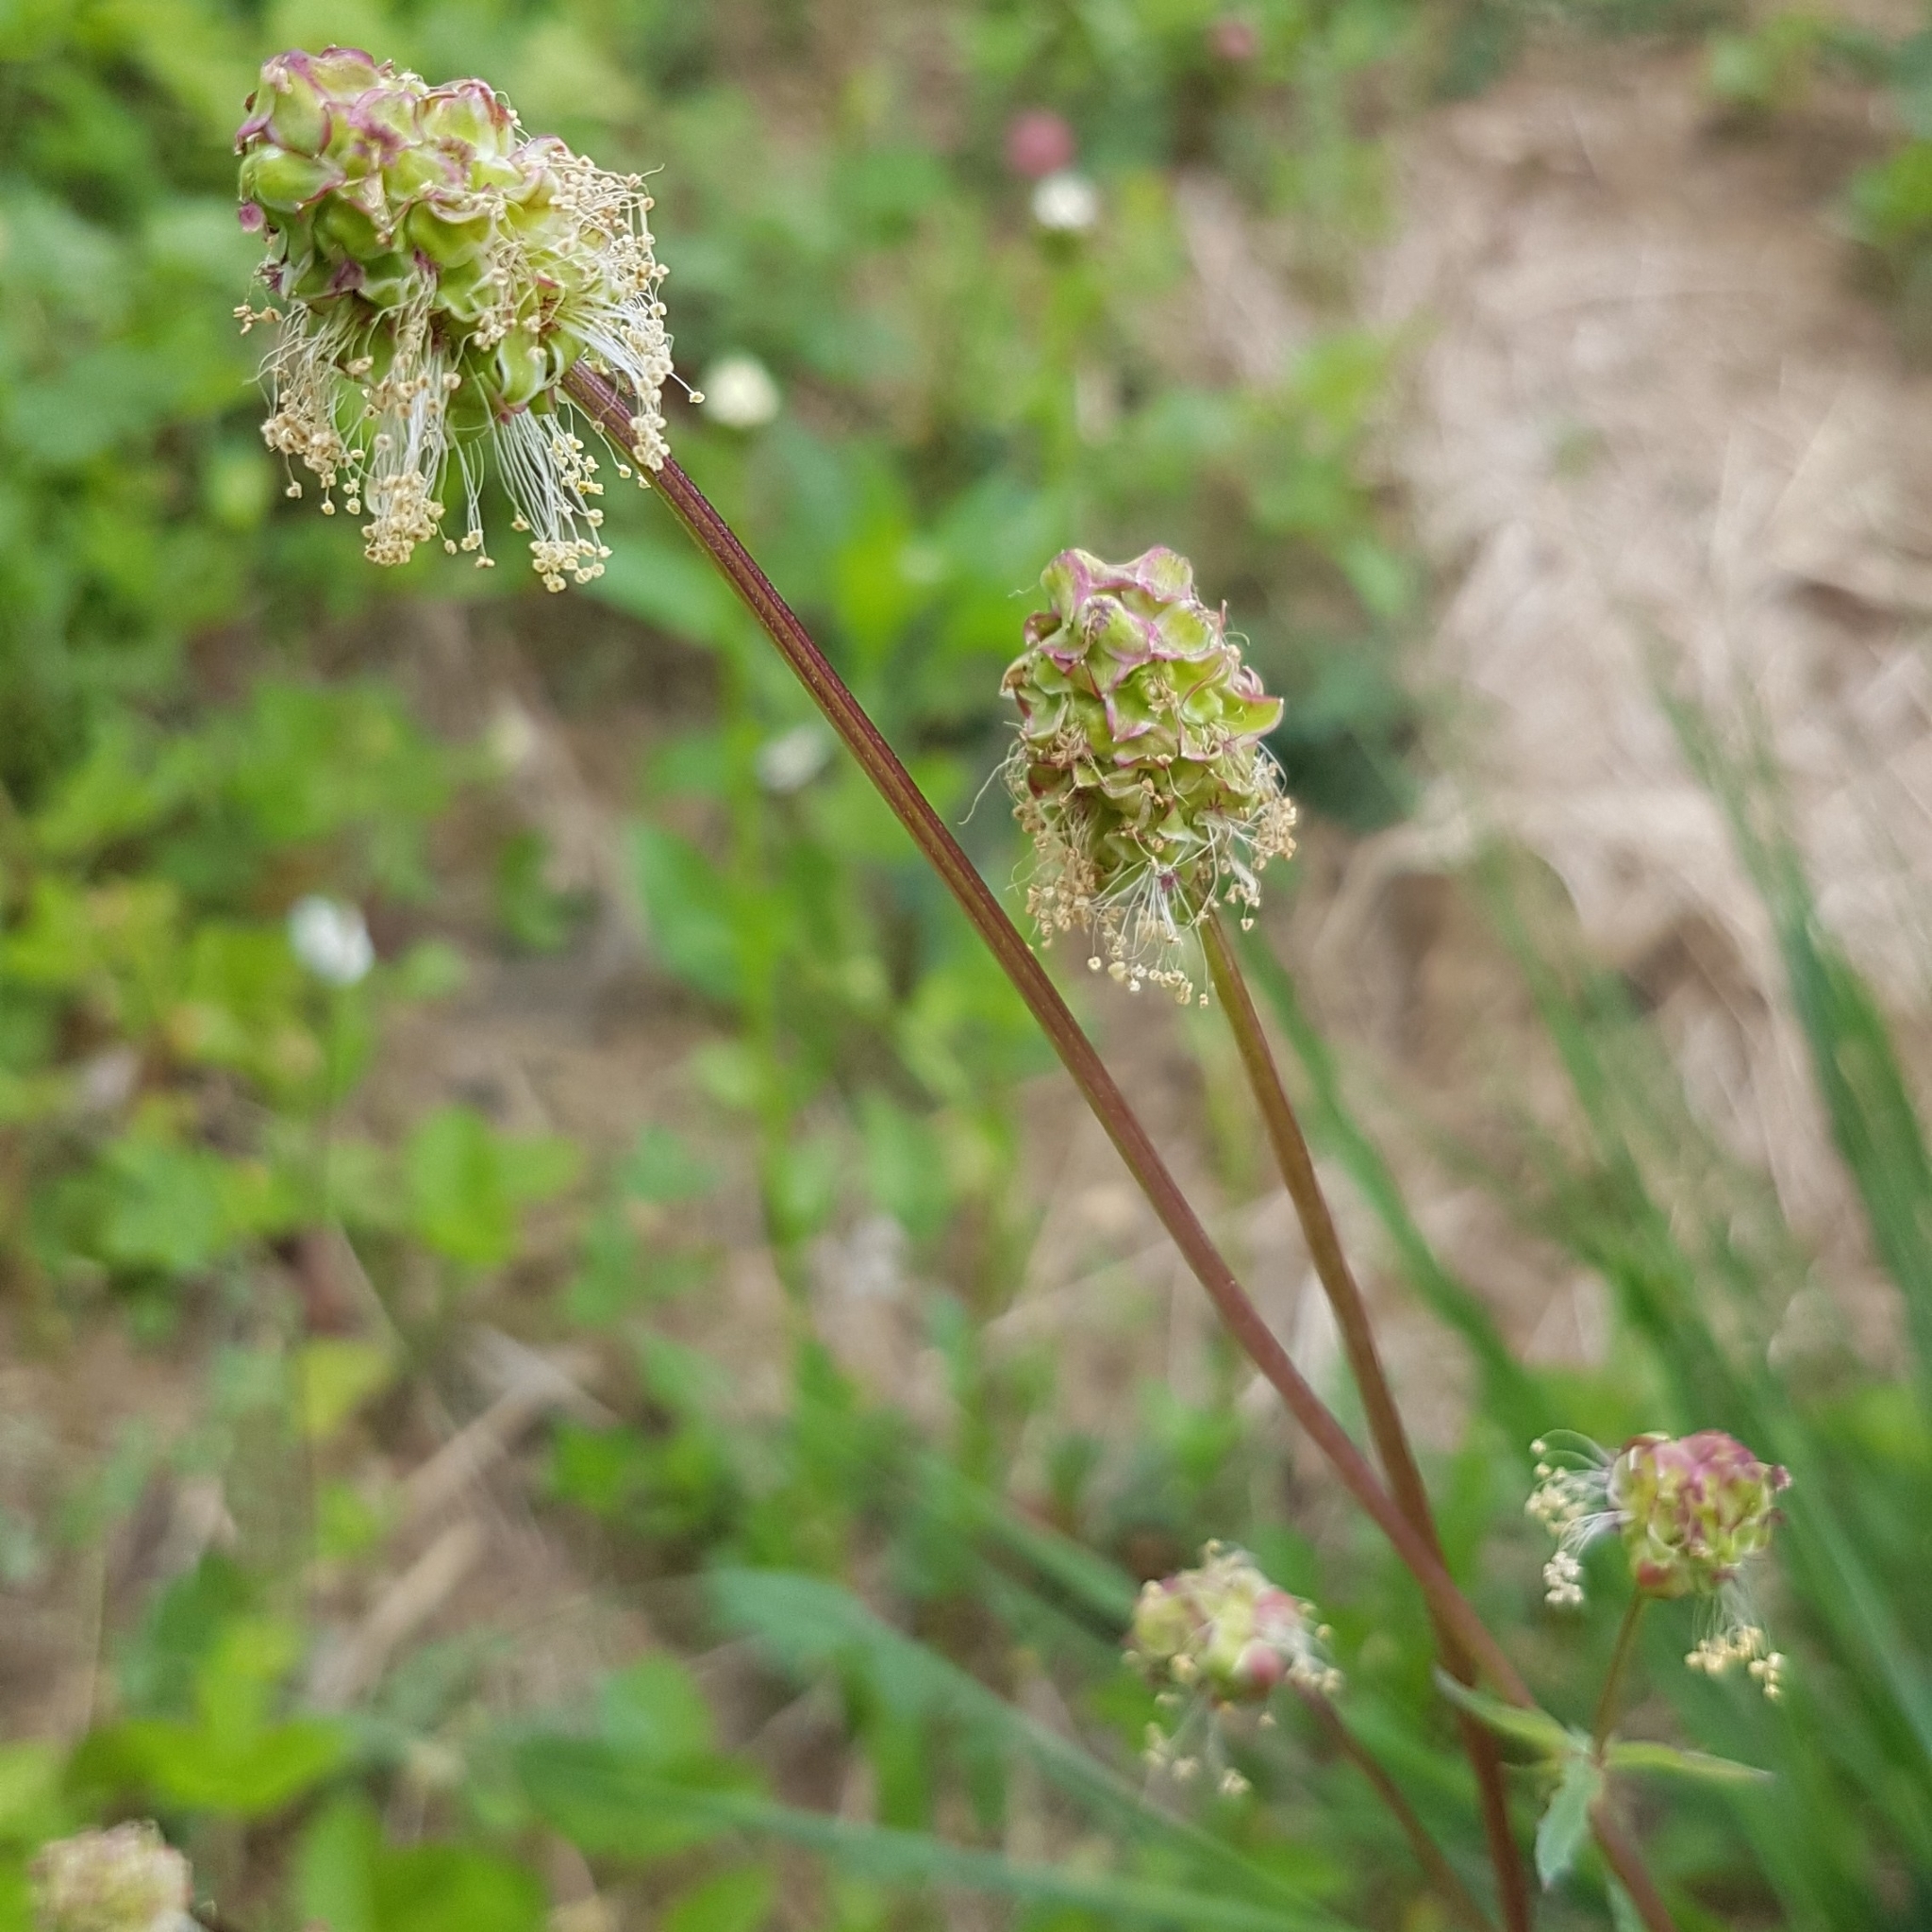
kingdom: Plantae
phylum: Tracheophyta
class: Magnoliopsida
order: Rosales
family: Rosaceae
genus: Poterium
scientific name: Poterium sanguisorba
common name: Salad burnet
